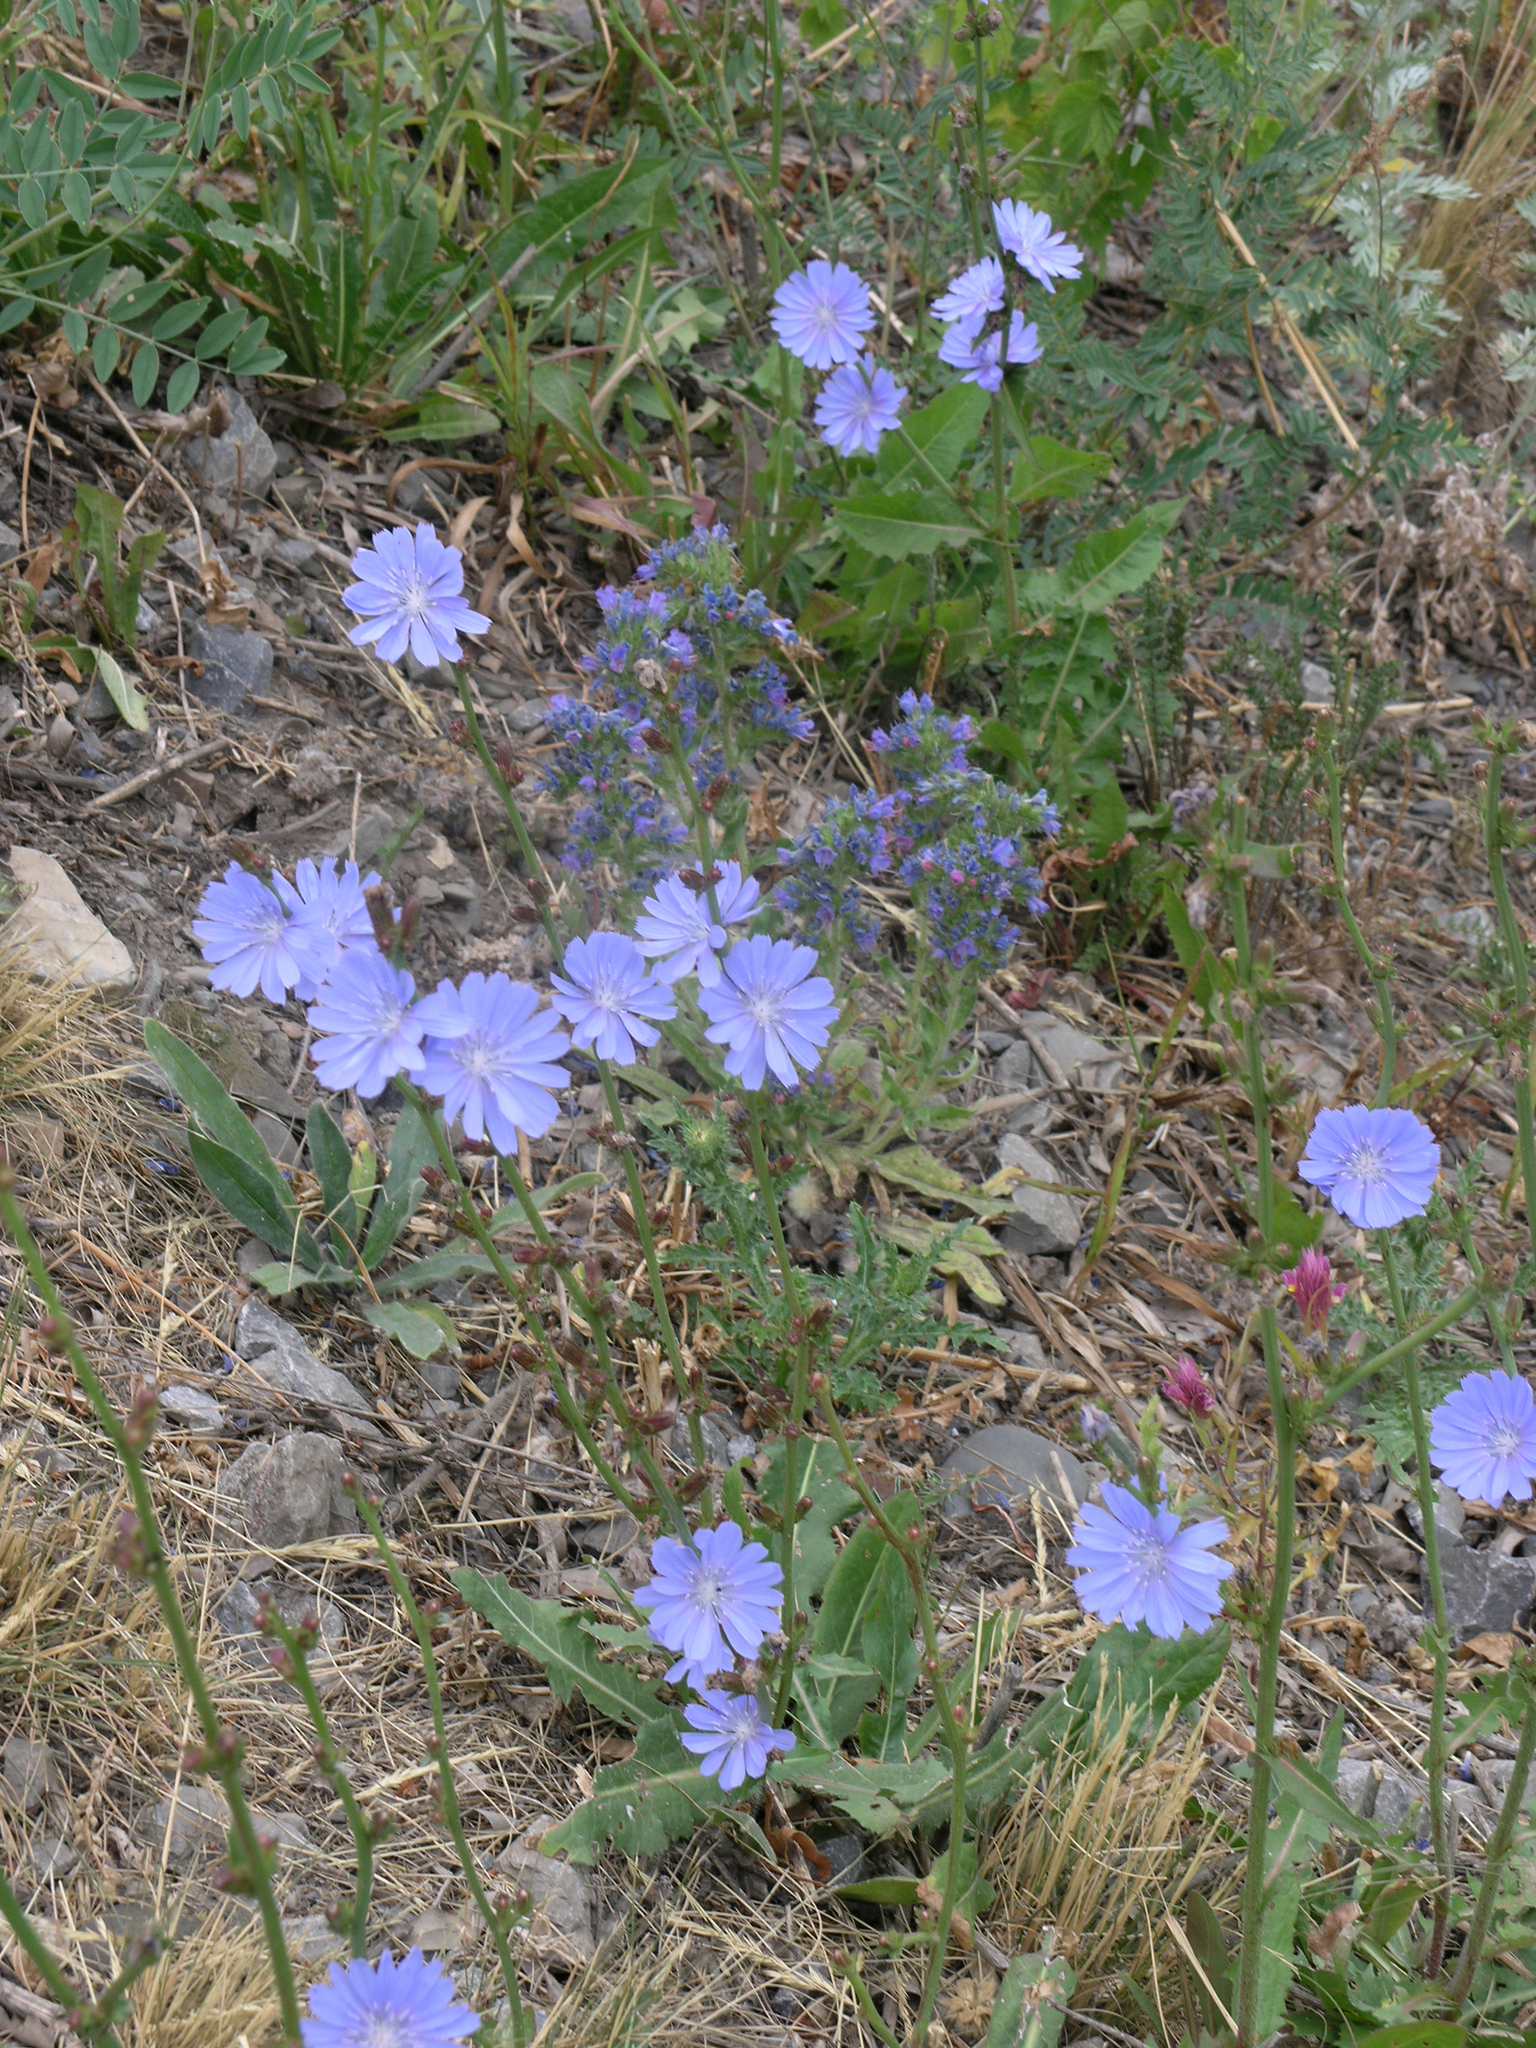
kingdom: Plantae
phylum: Tracheophyta
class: Magnoliopsida
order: Asterales
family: Asteraceae
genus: Cichorium
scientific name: Cichorium intybus
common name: Chicory
